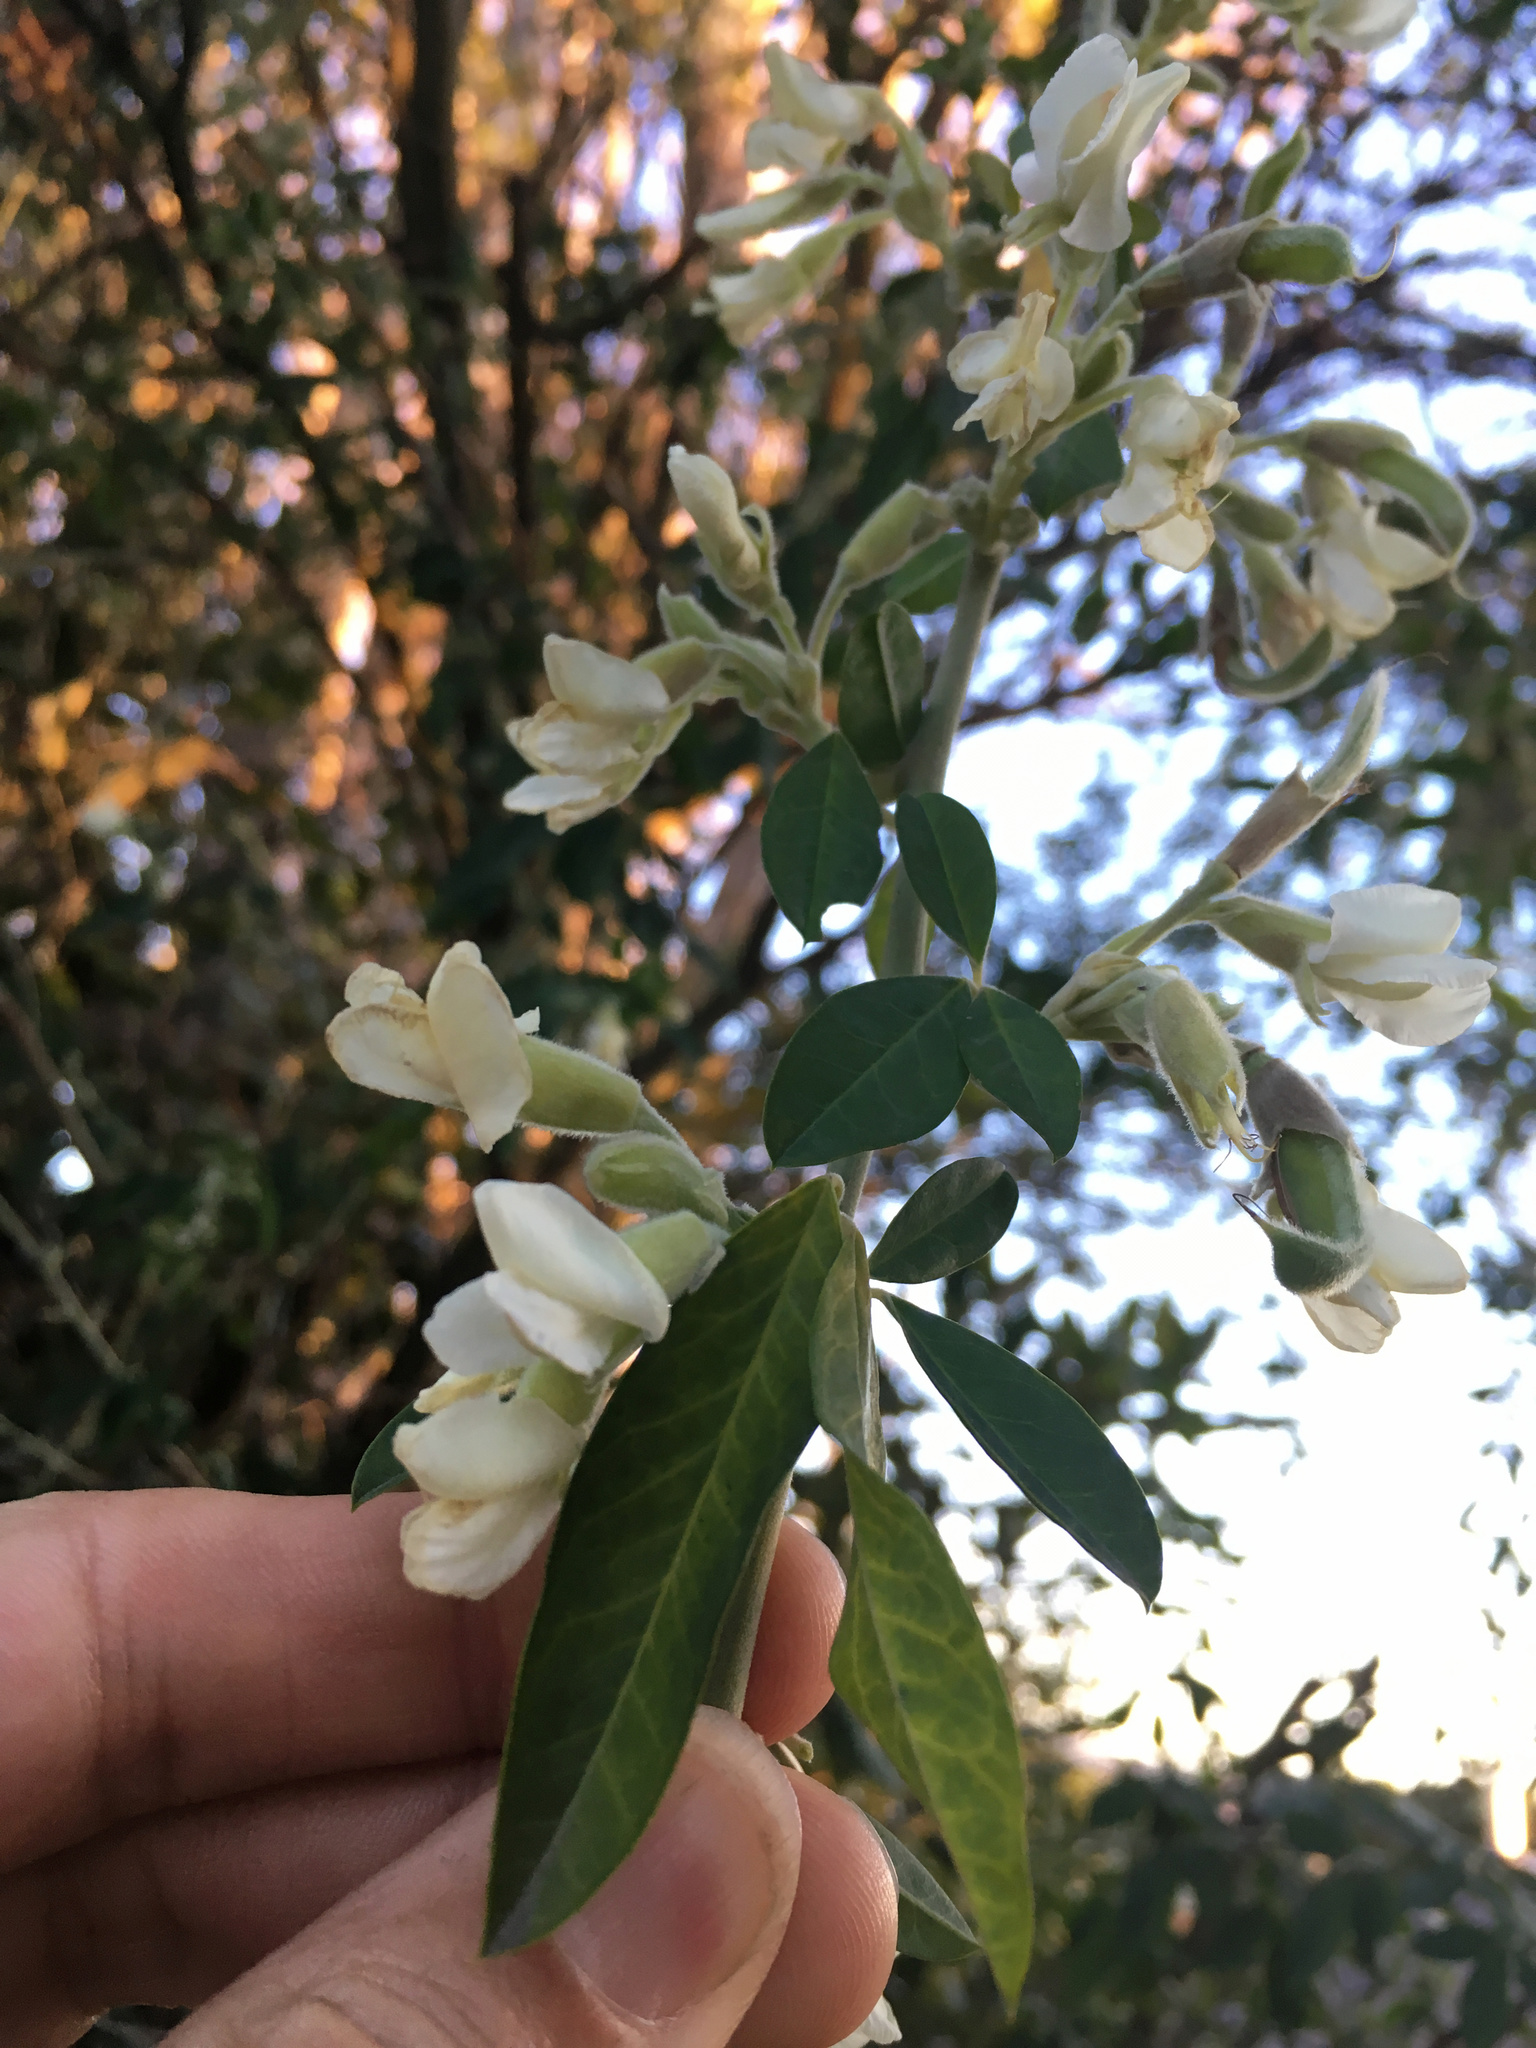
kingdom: Plantae
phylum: Tracheophyta
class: Magnoliopsida
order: Fabales
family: Fabaceae
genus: Chamaecytisus
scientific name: Chamaecytisus prolifer
